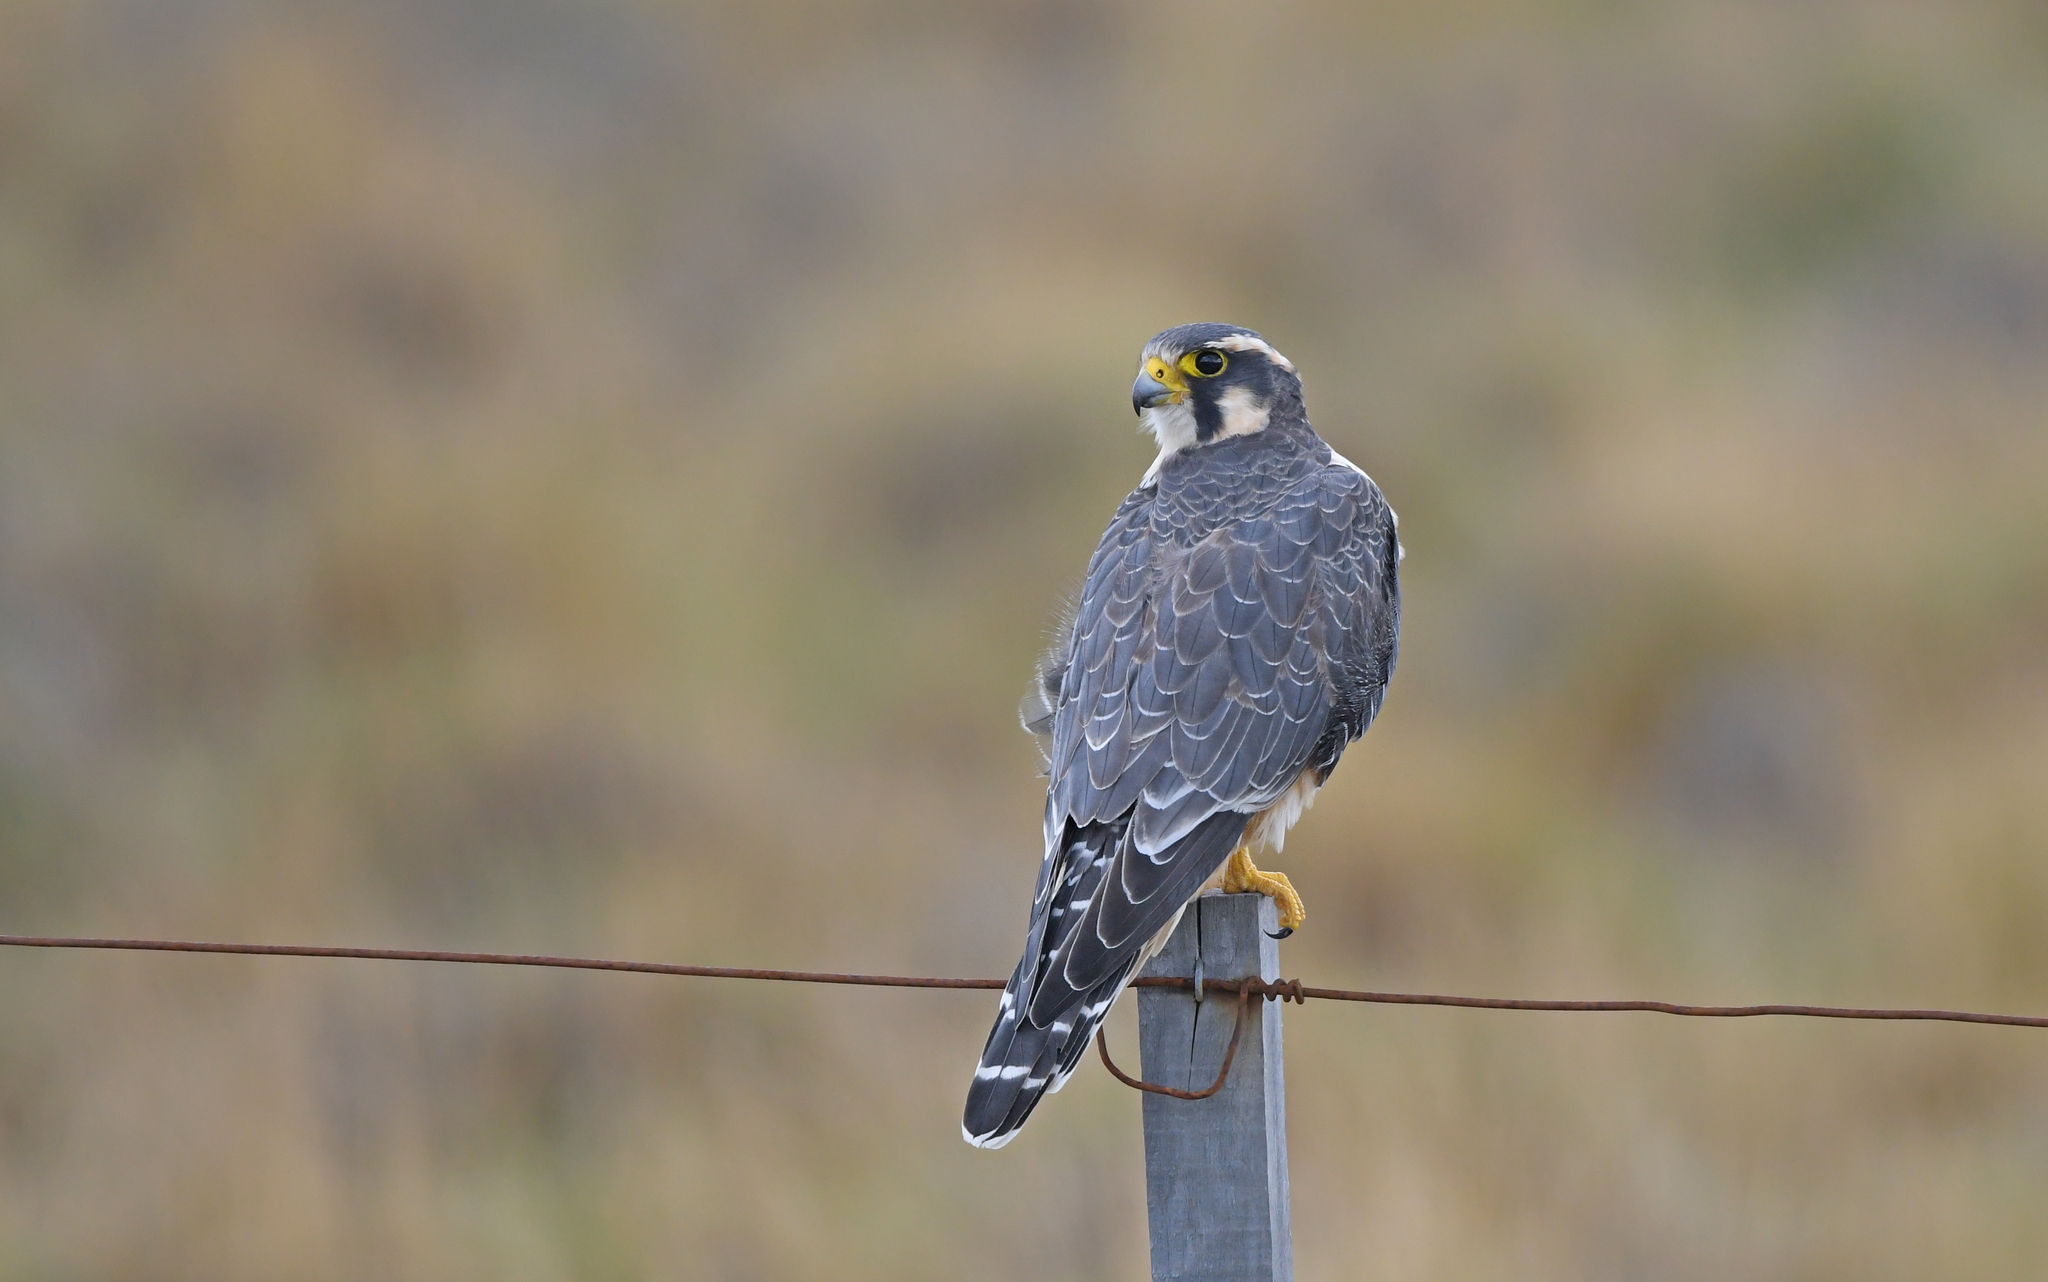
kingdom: Animalia
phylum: Chordata
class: Aves
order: Falconiformes
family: Falconidae
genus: Falco
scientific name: Falco femoralis
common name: Aplomado falcon
